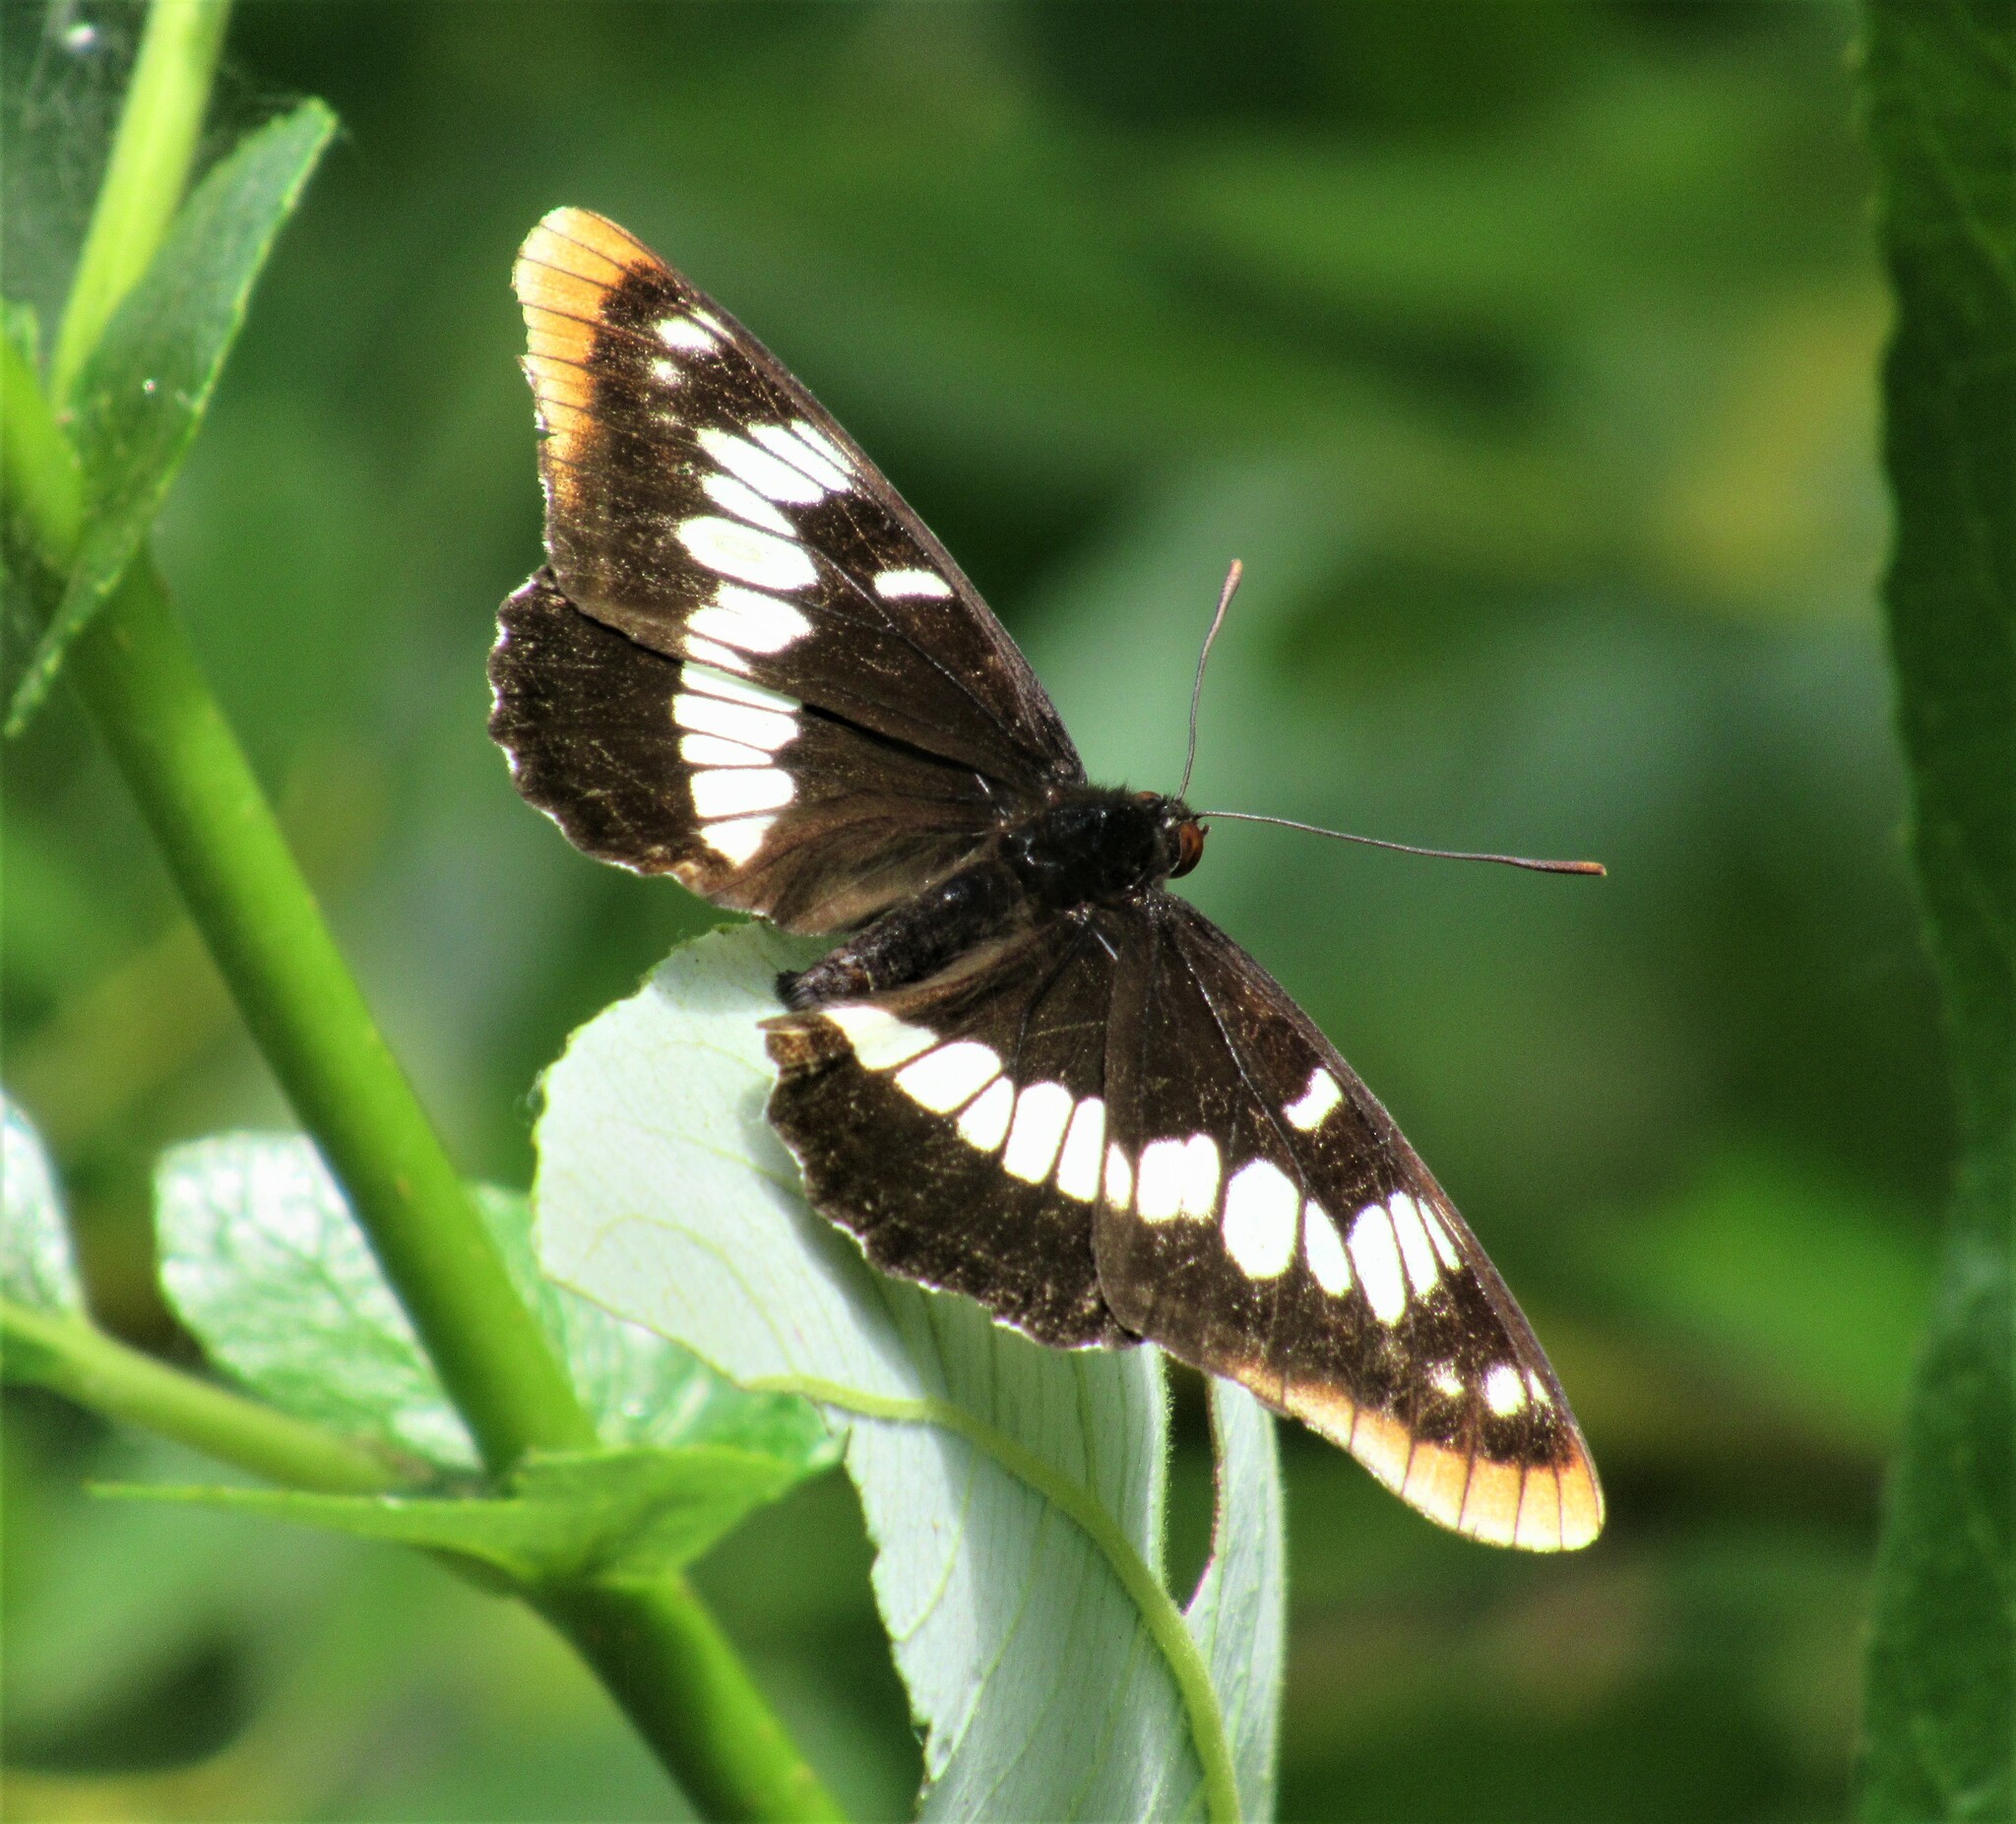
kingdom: Animalia
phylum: Arthropoda
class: Insecta
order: Lepidoptera
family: Nymphalidae
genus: Limenitis
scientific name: Limenitis lorquini
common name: Lorquin's admiral
